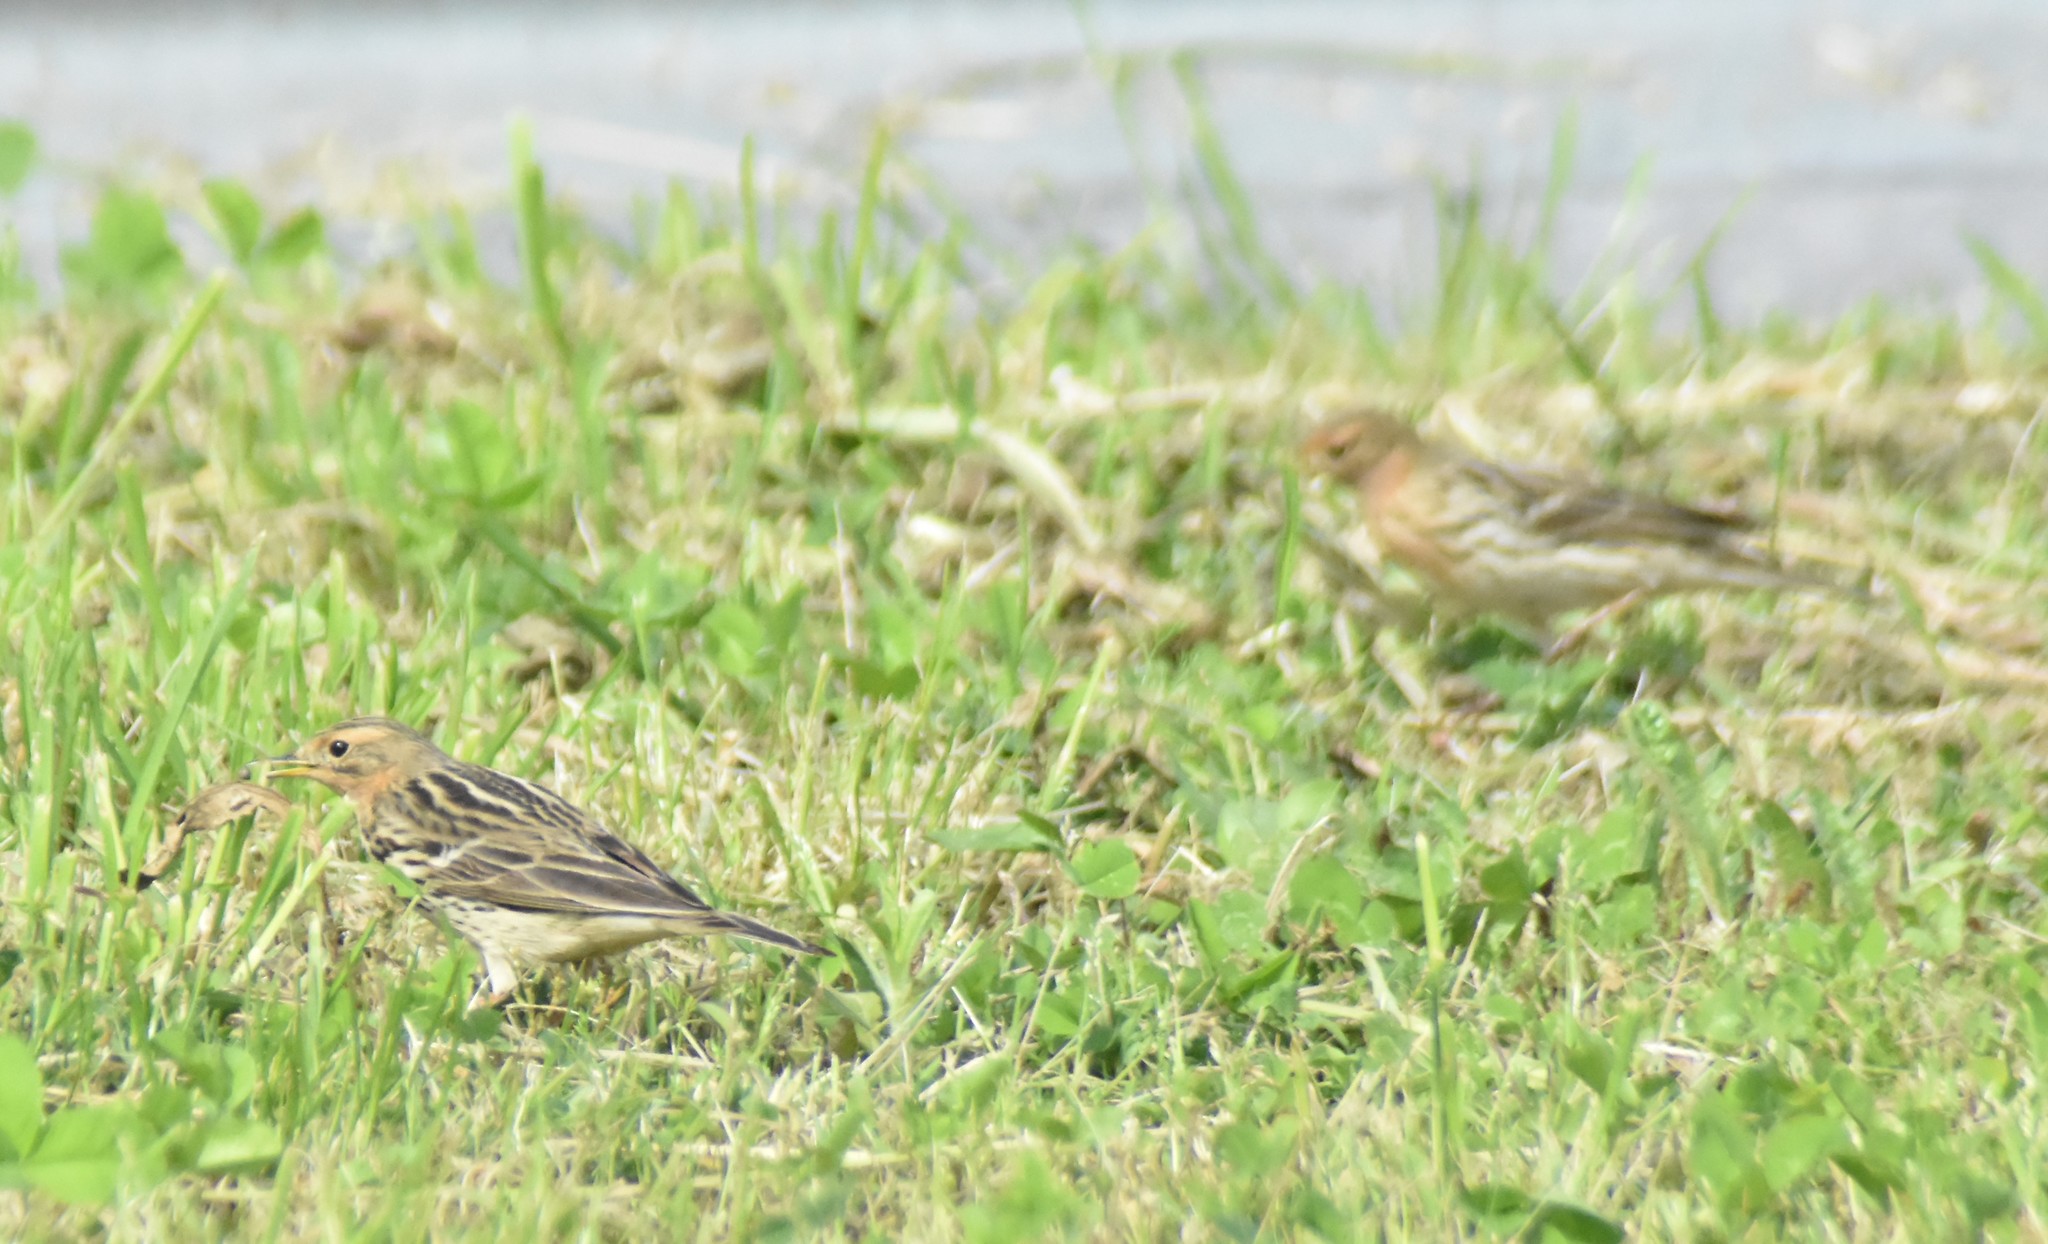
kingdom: Animalia
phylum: Chordata
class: Aves
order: Passeriformes
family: Motacillidae
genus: Anthus
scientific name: Anthus cervinus
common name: Red-throated pipit
